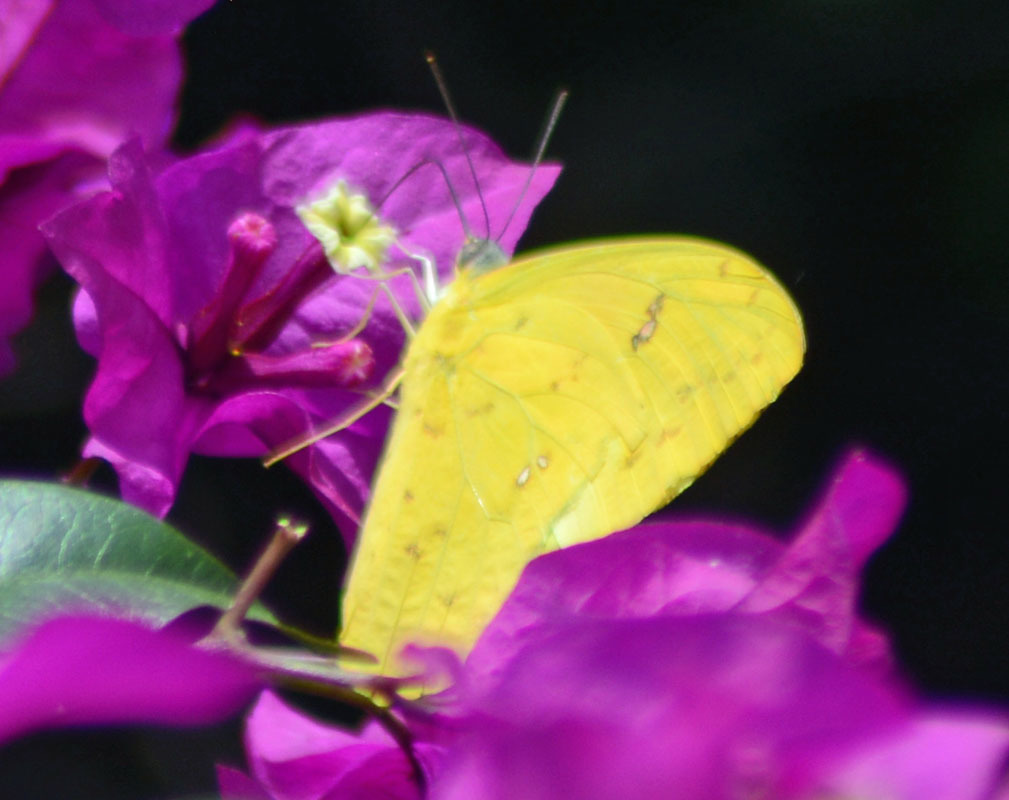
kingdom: Animalia
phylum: Arthropoda
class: Insecta
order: Lepidoptera
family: Pieridae
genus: Phoebis
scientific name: Phoebis philea
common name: Orange-barred giant sulphur
